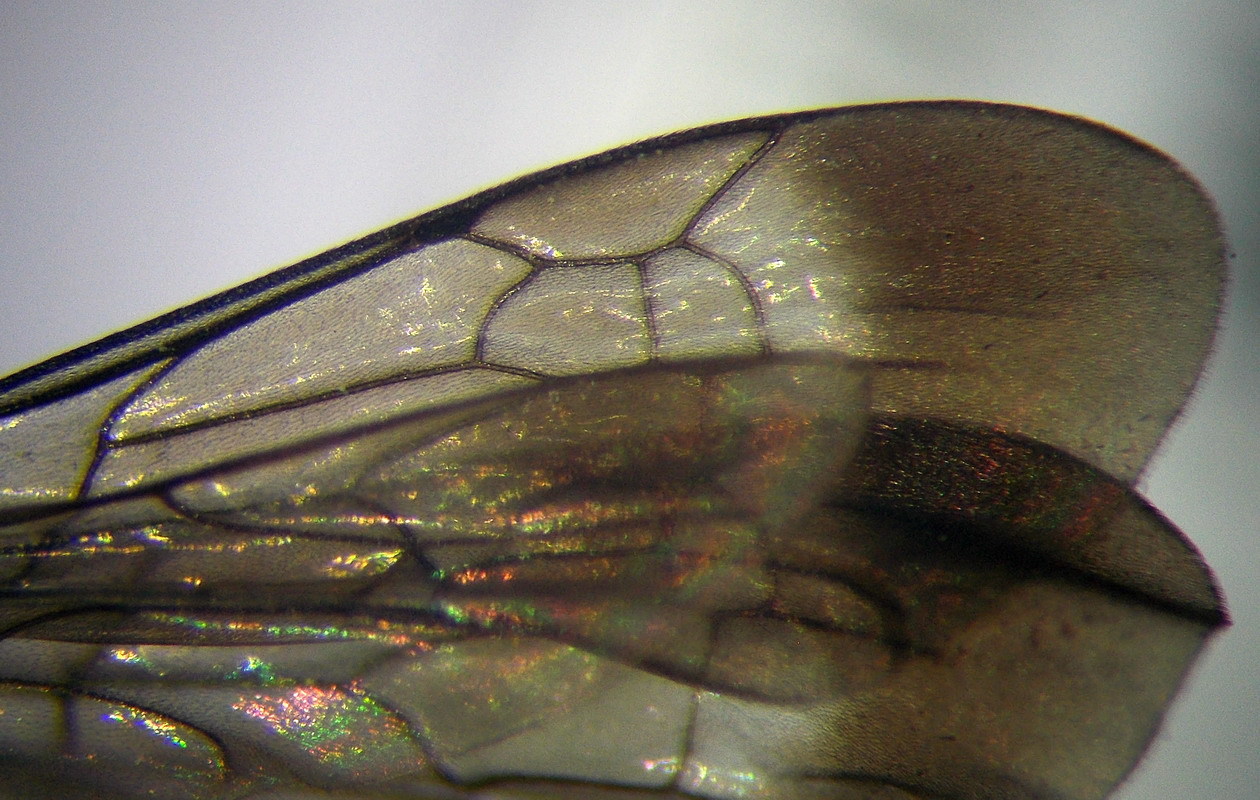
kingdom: Animalia
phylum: Arthropoda
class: Insecta
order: Hymenoptera
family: Pompilidae
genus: Amblyellus
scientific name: Amblyellus hasdrubal
